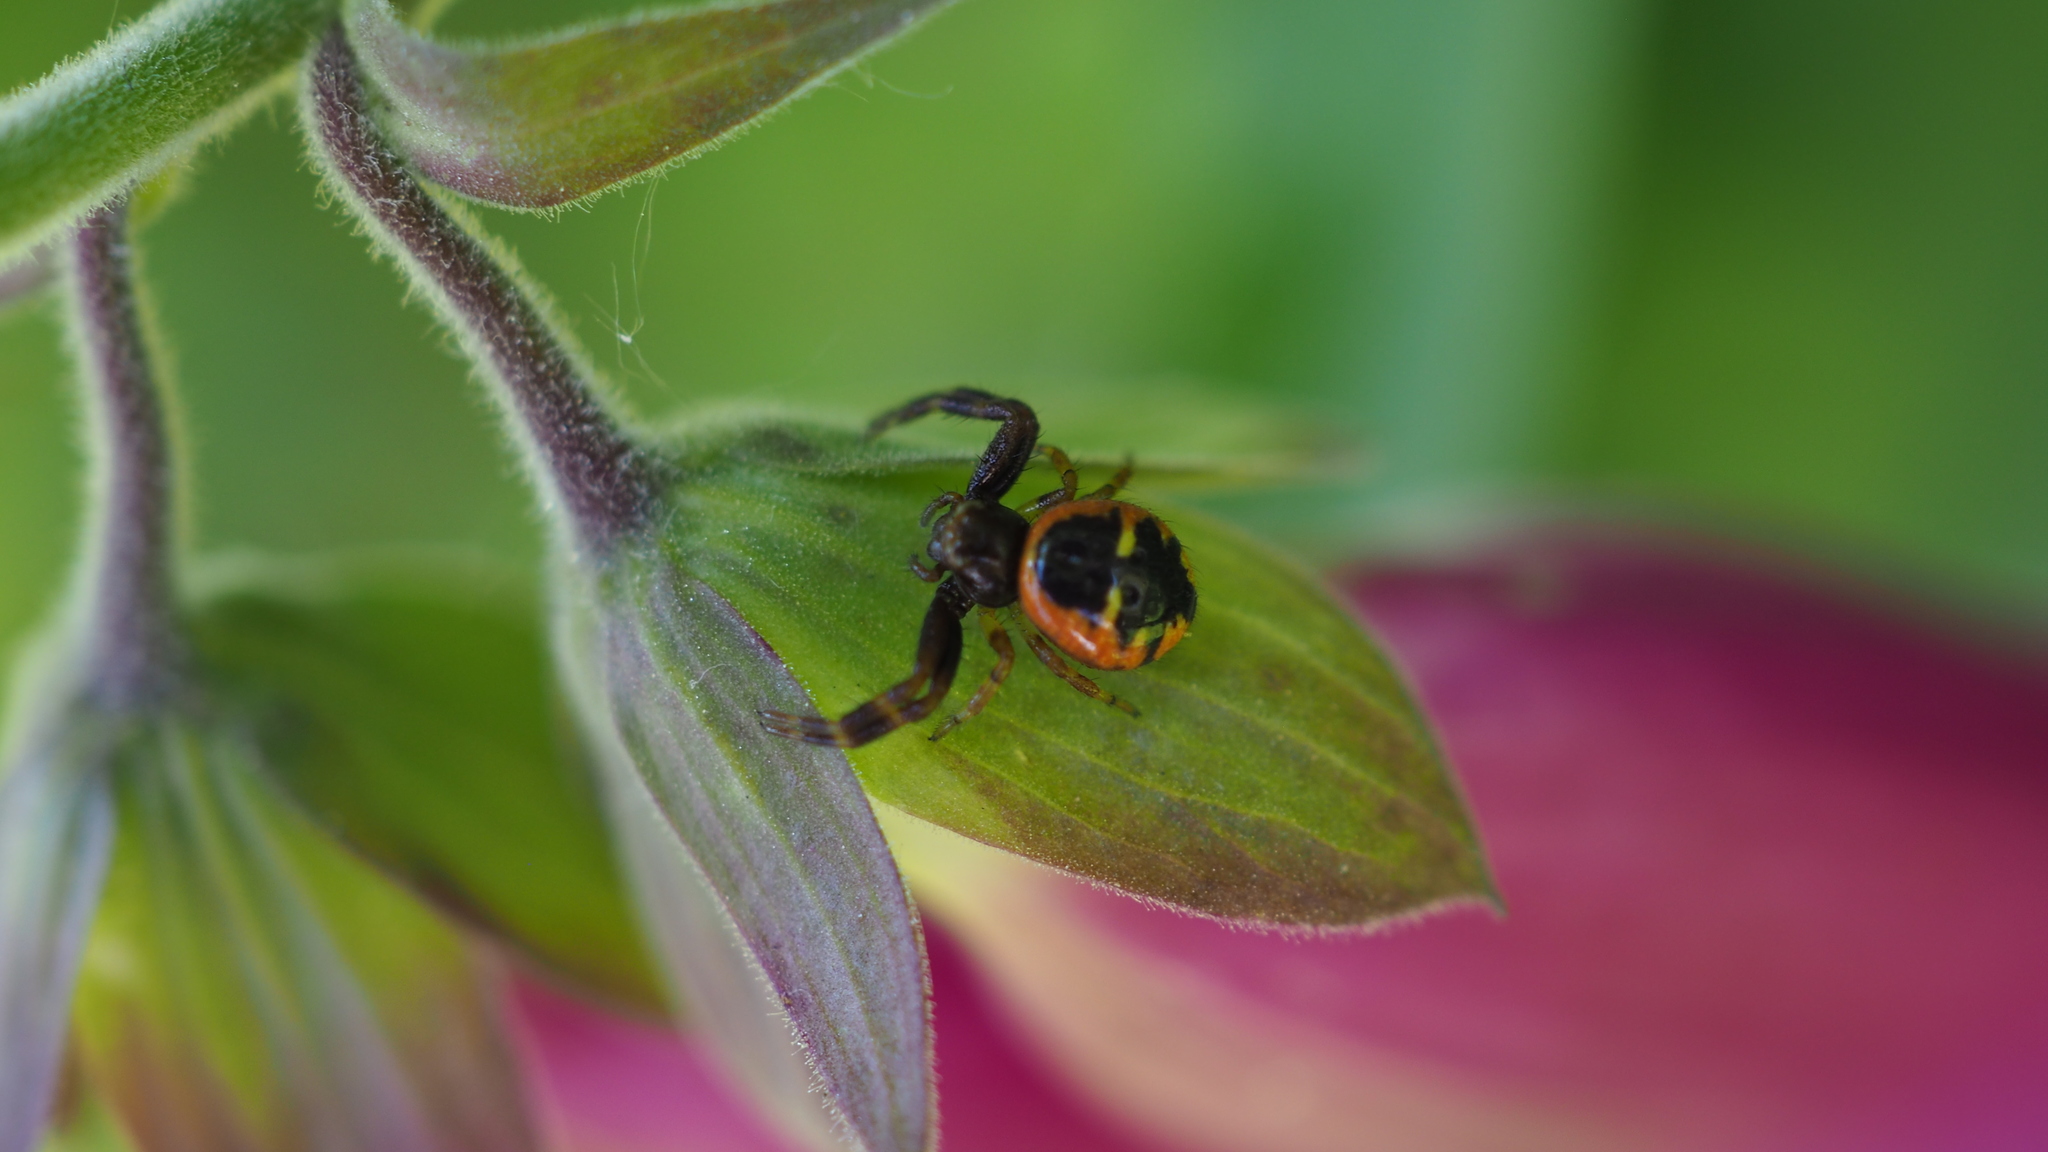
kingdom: Animalia
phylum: Arthropoda
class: Arachnida
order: Araneae
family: Thomisidae
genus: Synema
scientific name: Synema globosum
